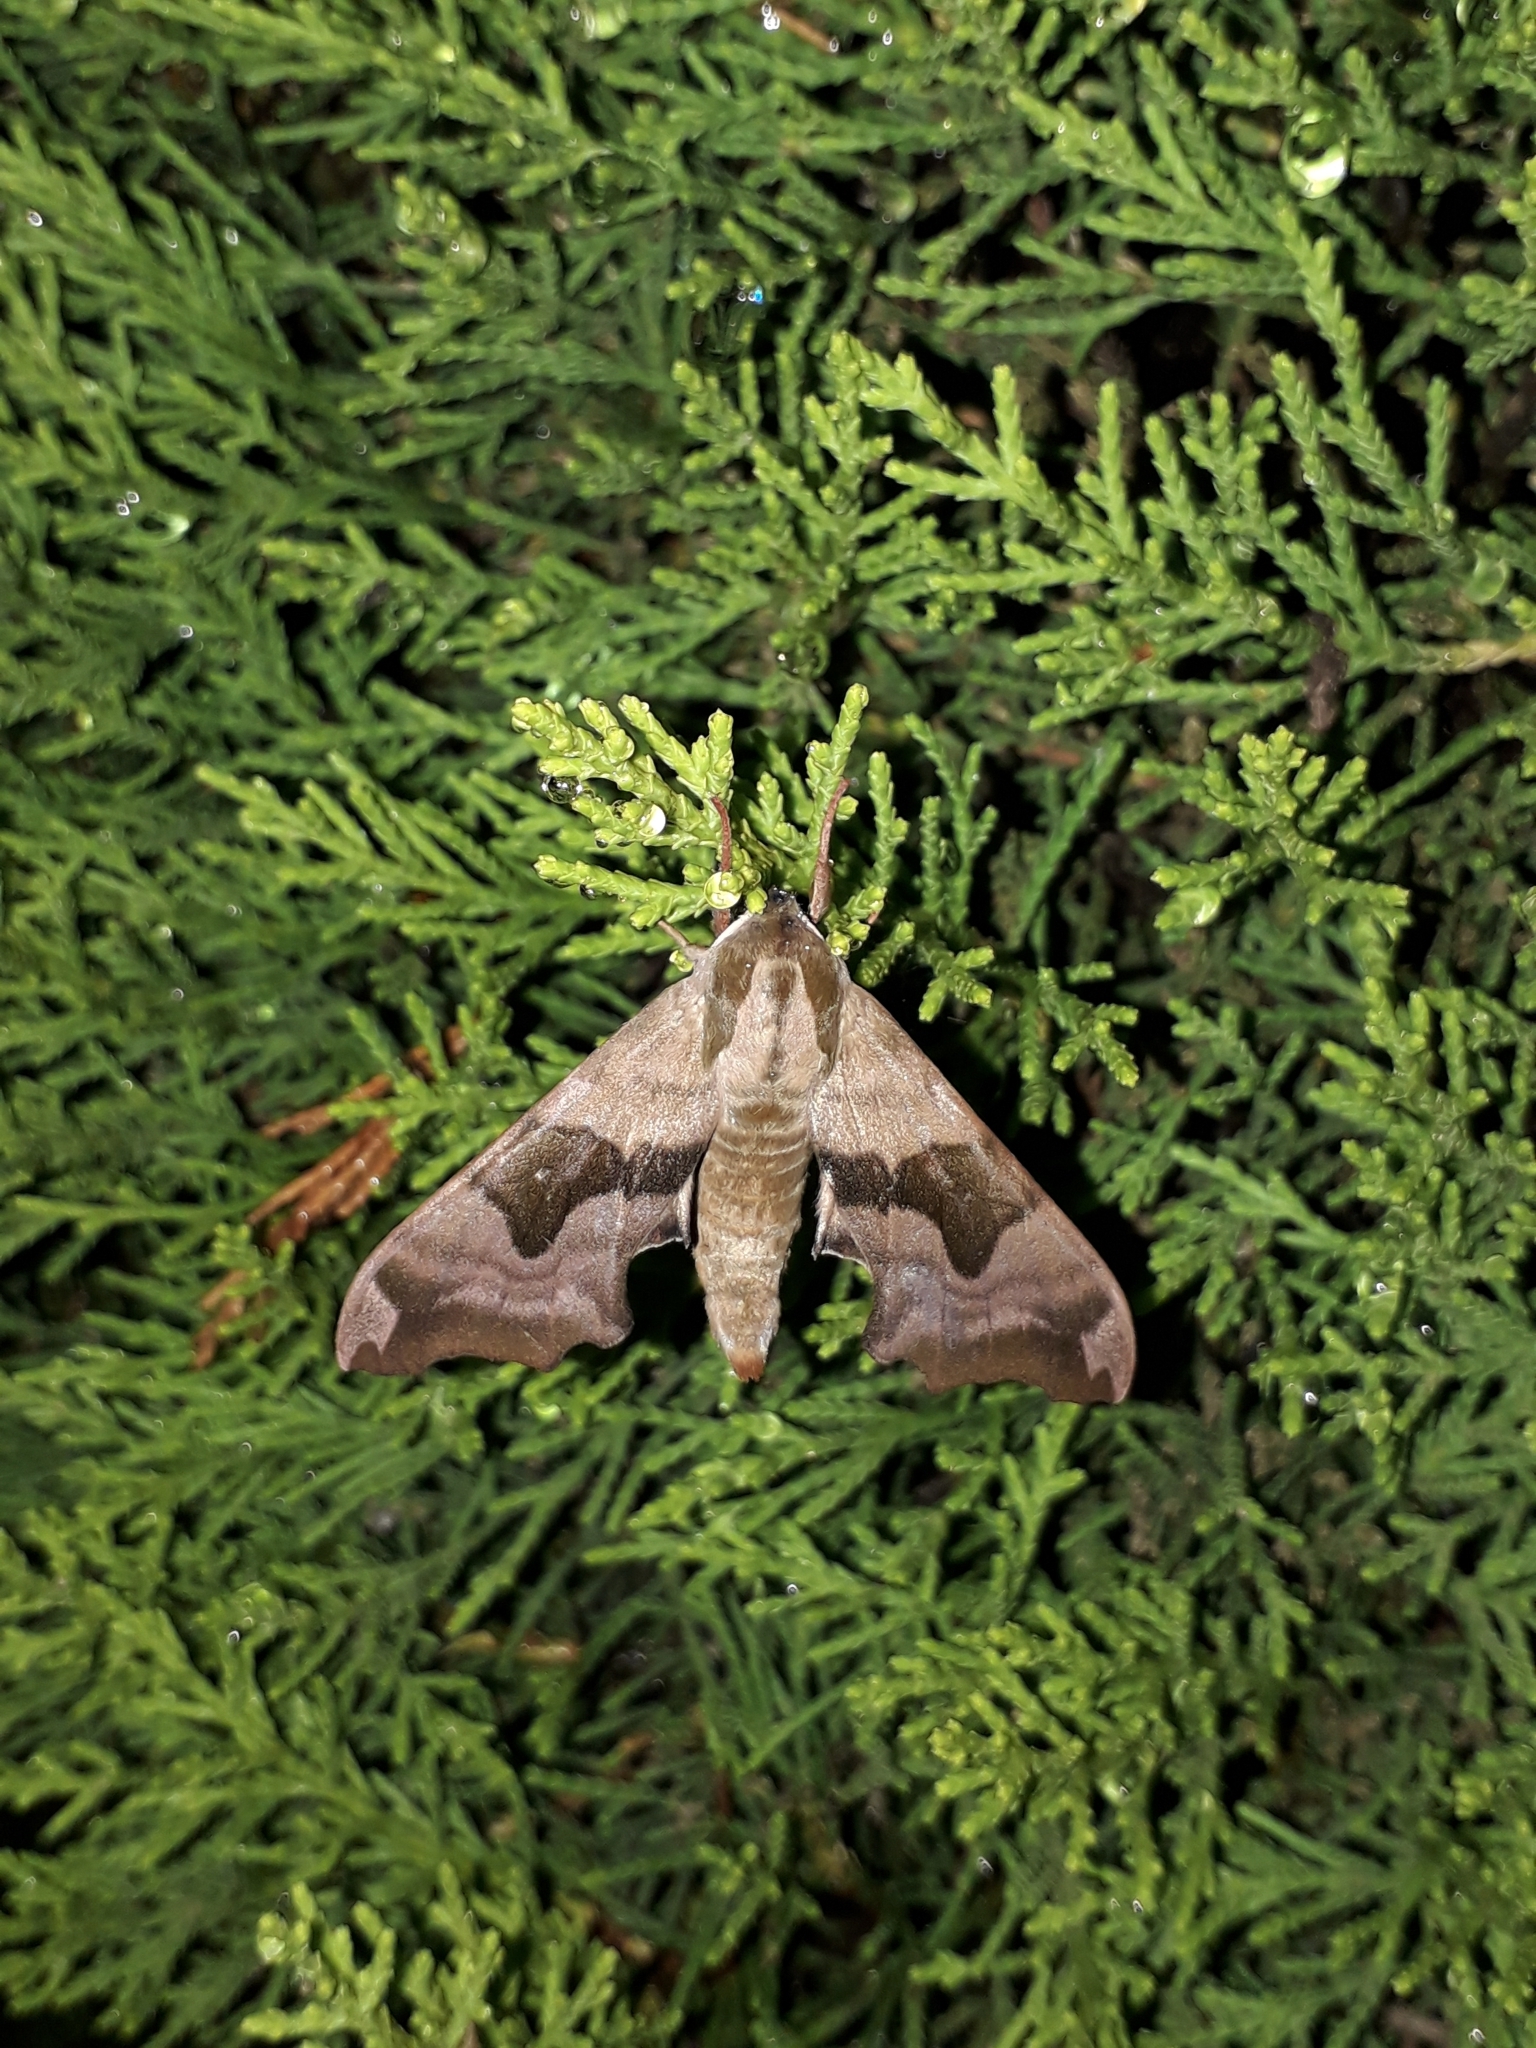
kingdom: Animalia
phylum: Arthropoda
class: Insecta
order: Lepidoptera
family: Sphingidae
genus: Mimas
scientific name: Mimas tiliae
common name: Lime hawk-moth
